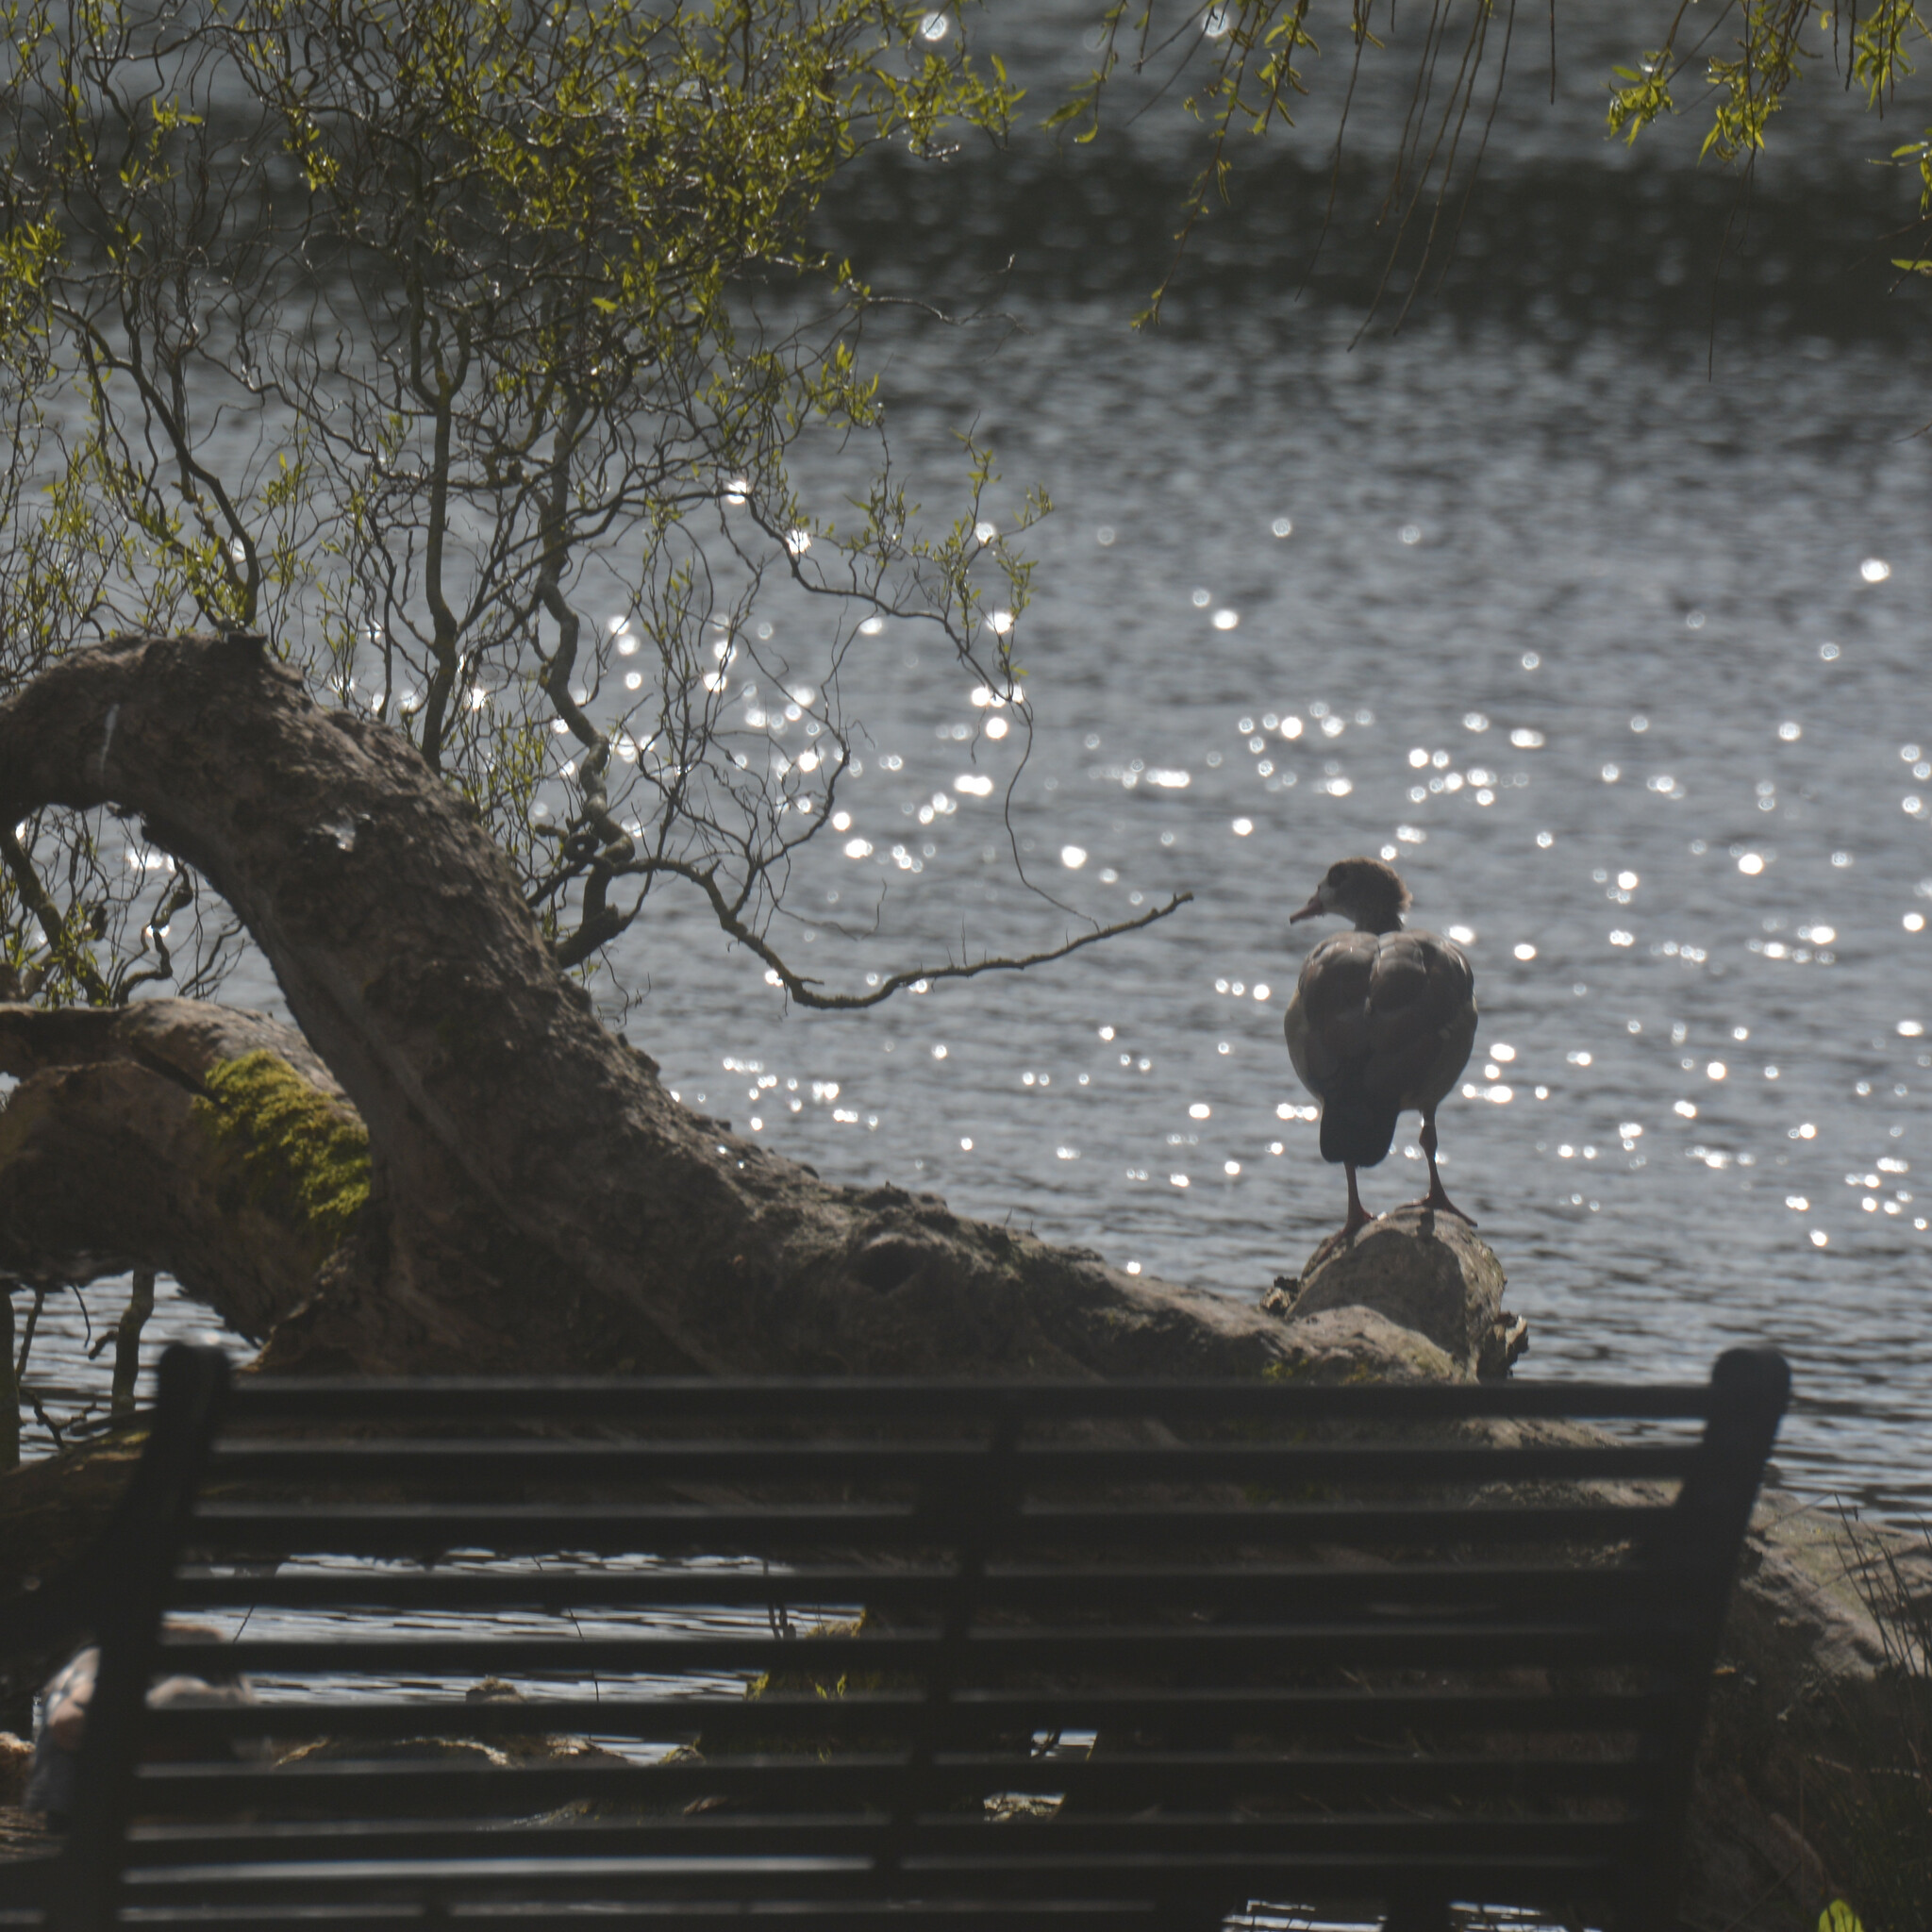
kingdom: Animalia
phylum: Chordata
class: Aves
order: Anseriformes
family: Anatidae
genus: Alopochen
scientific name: Alopochen aegyptiaca
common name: Egyptian goose
